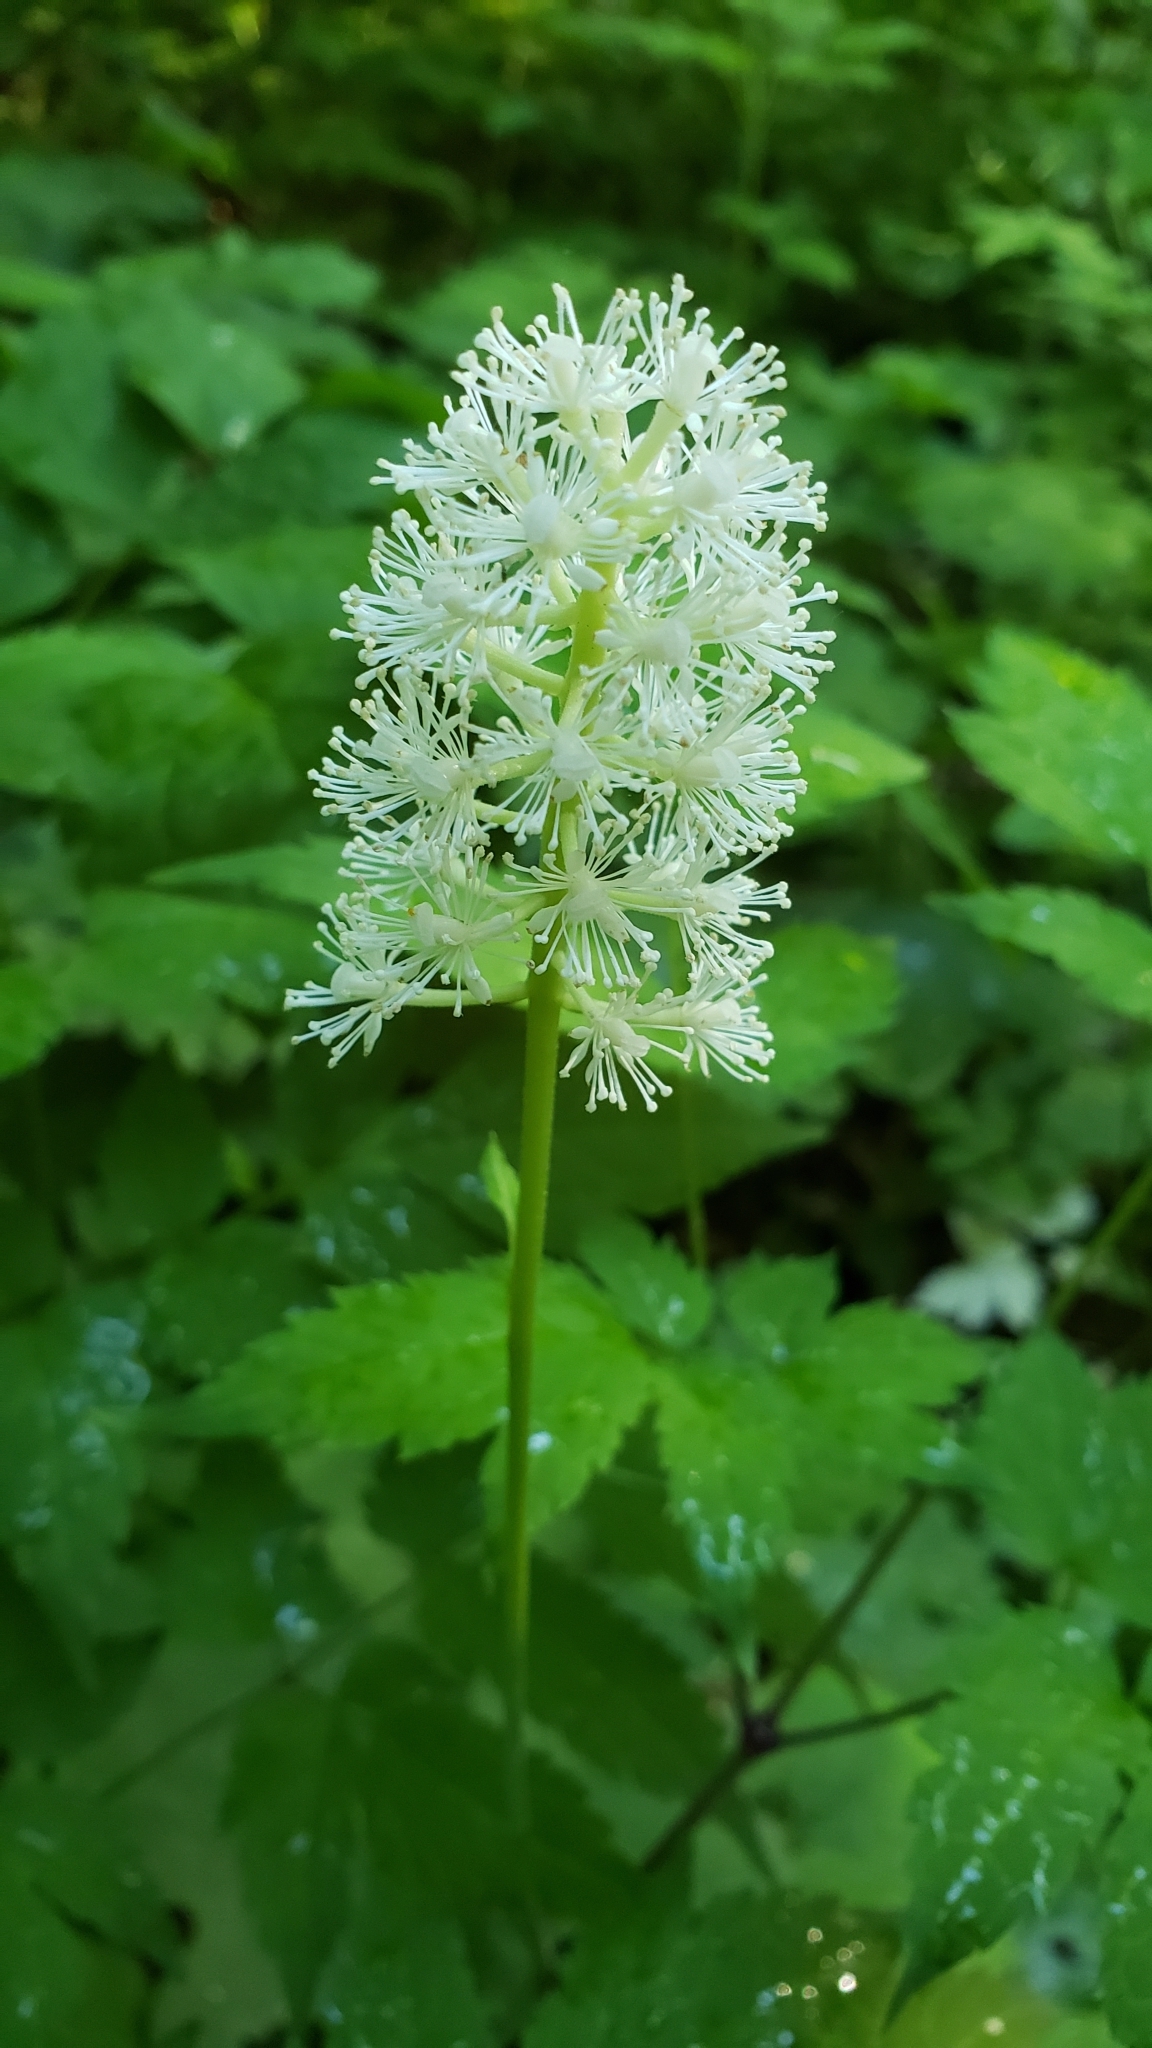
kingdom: Plantae
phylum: Tracheophyta
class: Magnoliopsida
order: Ranunculales
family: Ranunculaceae
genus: Actaea
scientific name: Actaea pachypoda
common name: Doll's-eyes
